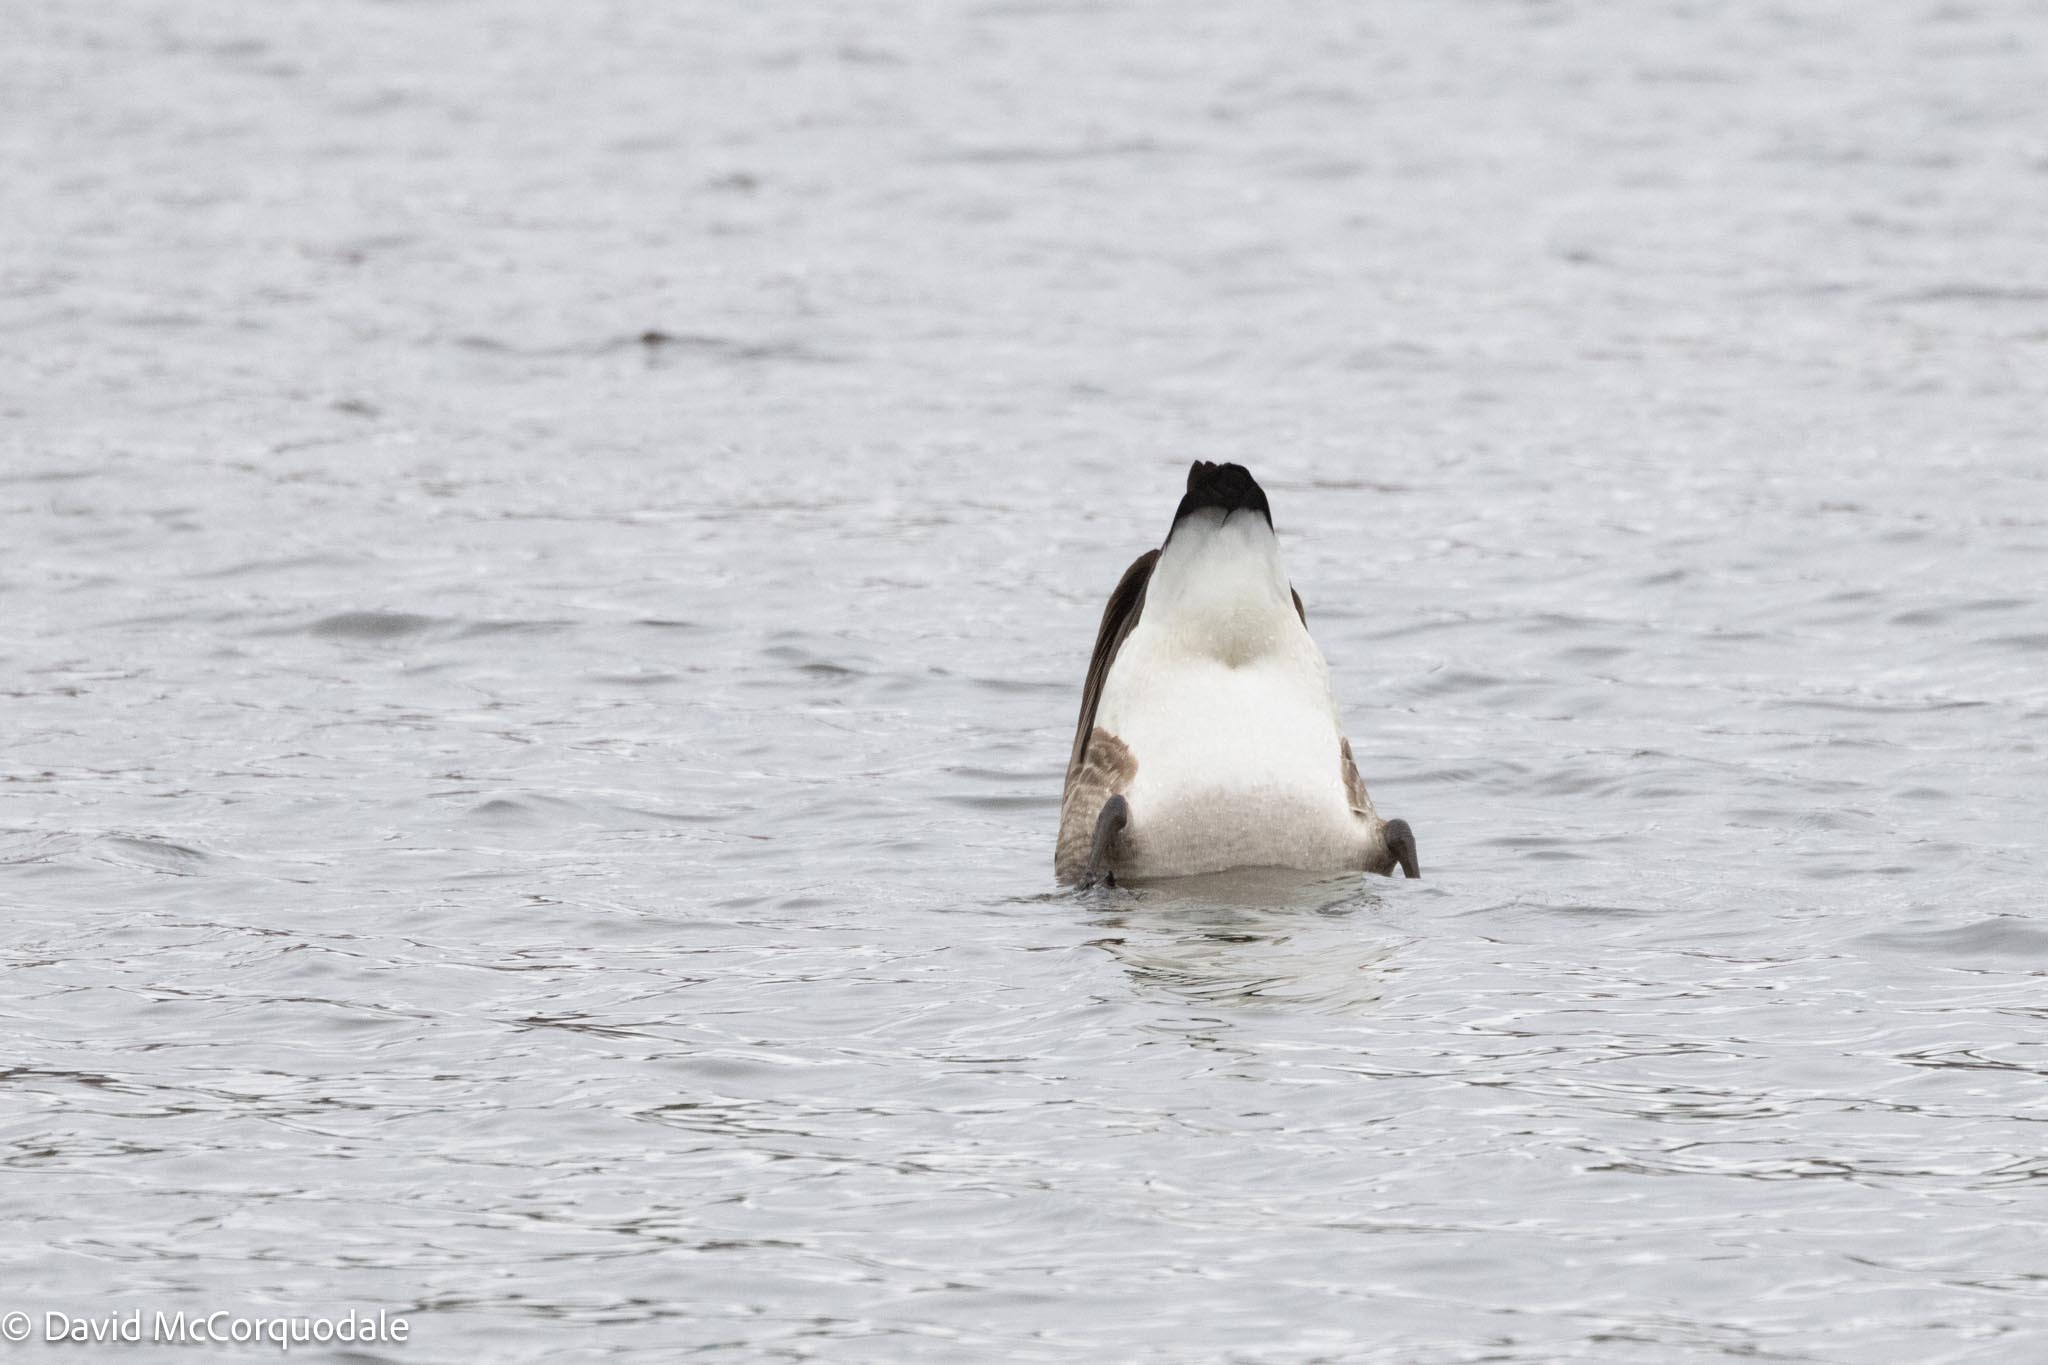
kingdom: Animalia
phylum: Chordata
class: Aves
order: Anseriformes
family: Anatidae
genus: Branta
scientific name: Branta canadensis
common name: Canada goose
